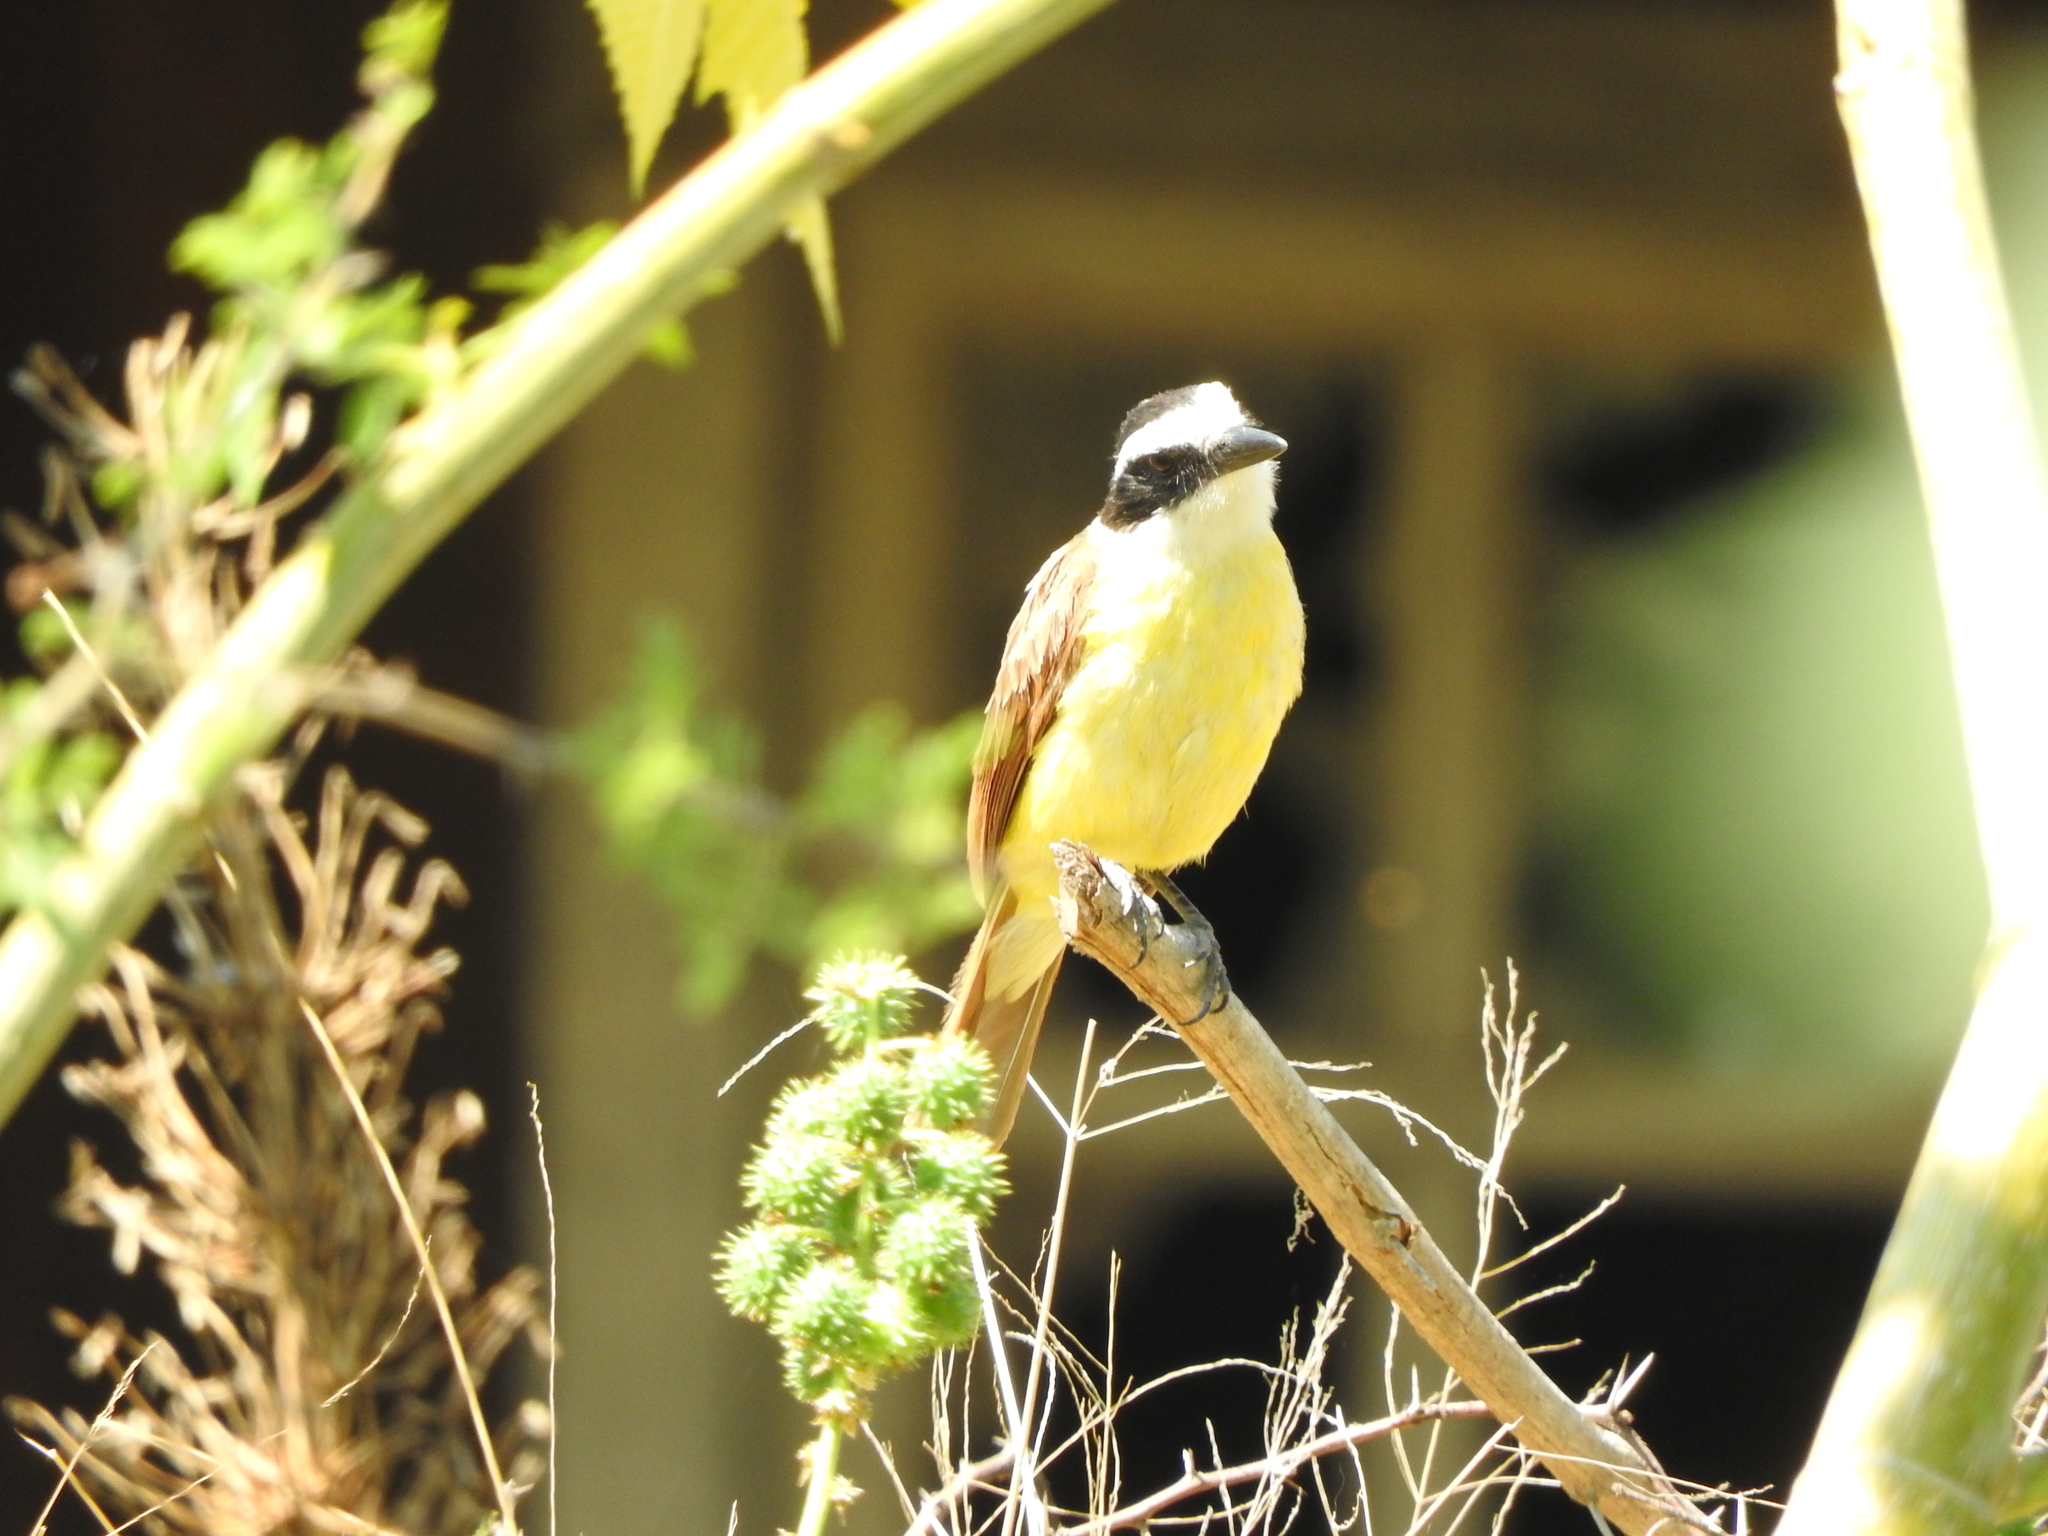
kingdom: Plantae
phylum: Tracheophyta
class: Magnoliopsida
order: Malpighiales
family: Euphorbiaceae
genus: Ricinus
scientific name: Ricinus communis
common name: Castor-oil-plant
